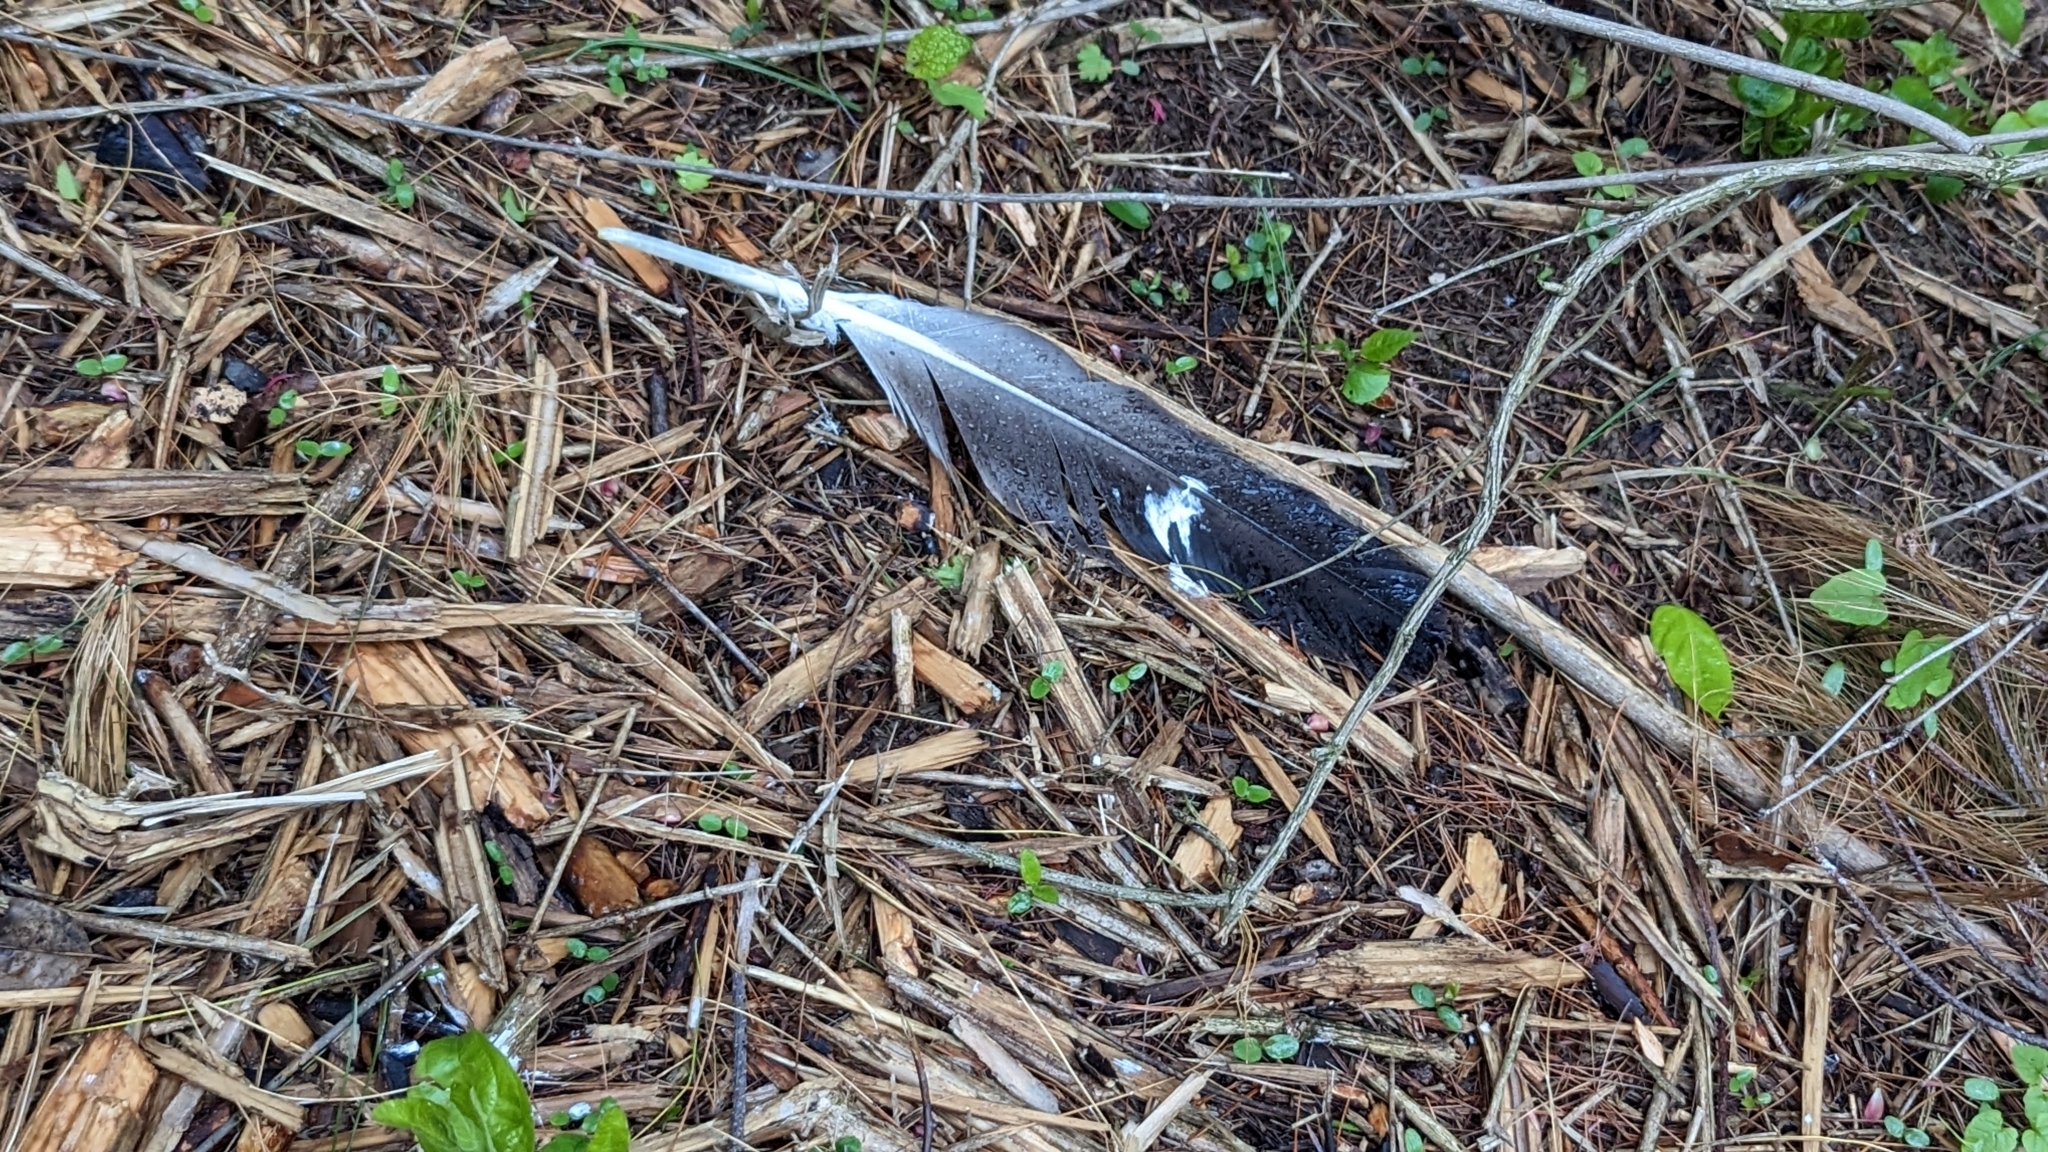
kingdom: Animalia
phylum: Chordata
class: Aves
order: Accipitriformes
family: Accipitridae
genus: Haliaeetus
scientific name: Haliaeetus leucocephalus
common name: Bald eagle
